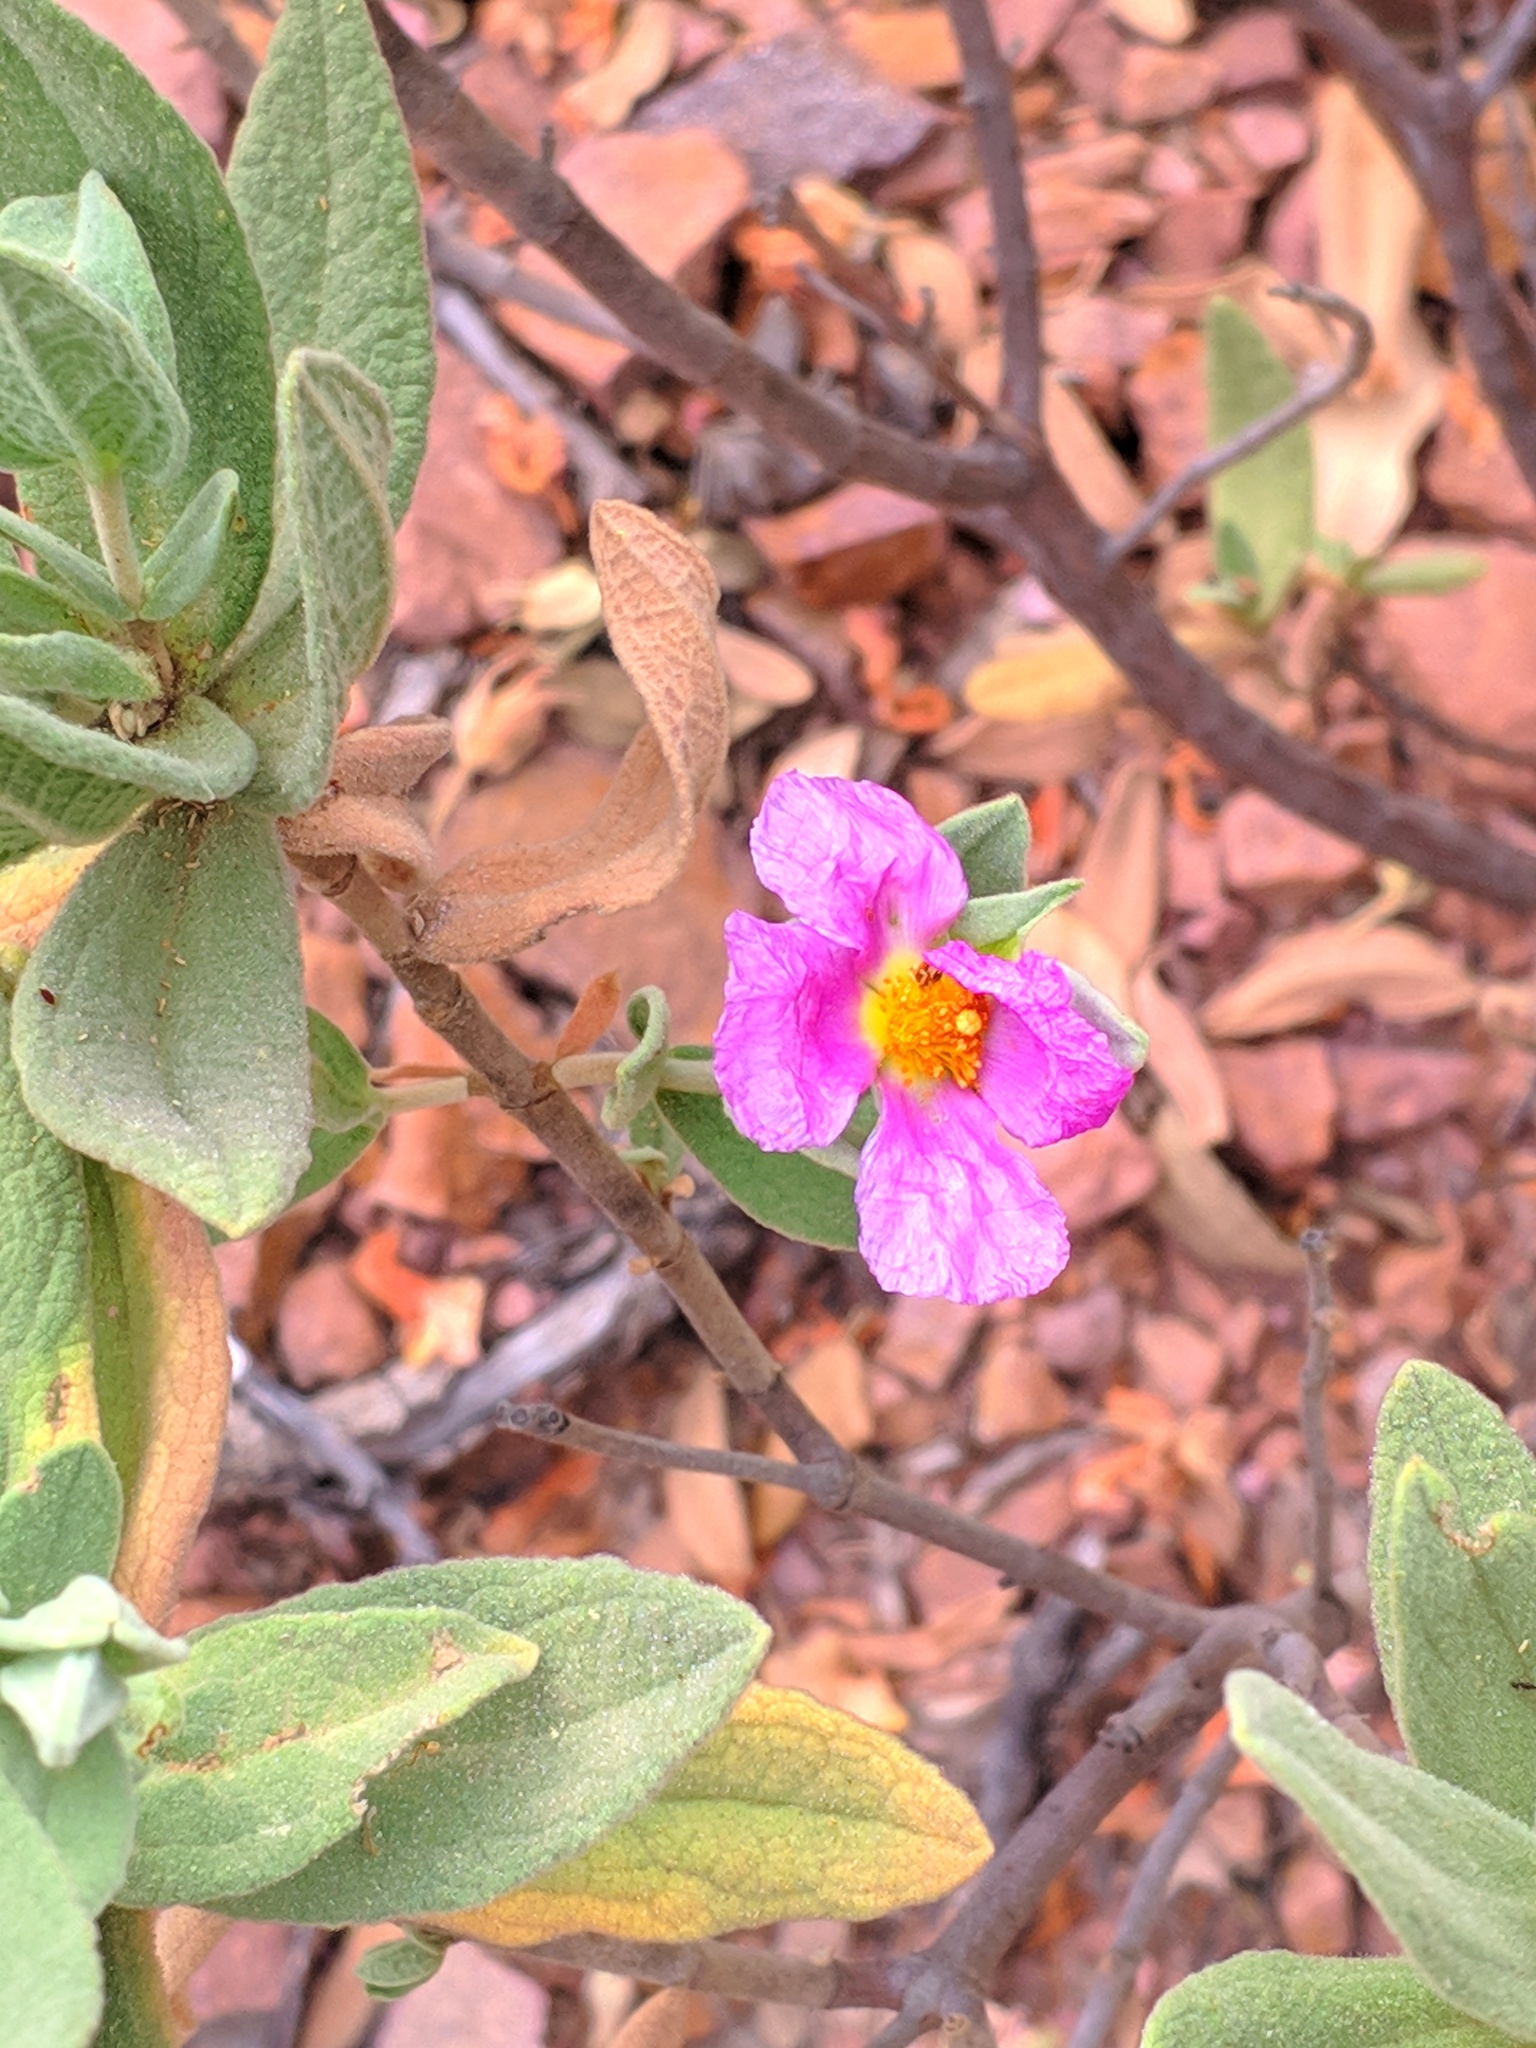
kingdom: Plantae
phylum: Tracheophyta
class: Magnoliopsida
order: Malvales
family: Cistaceae
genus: Cistus
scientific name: Cistus albidus
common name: White-leaf rock-rose
